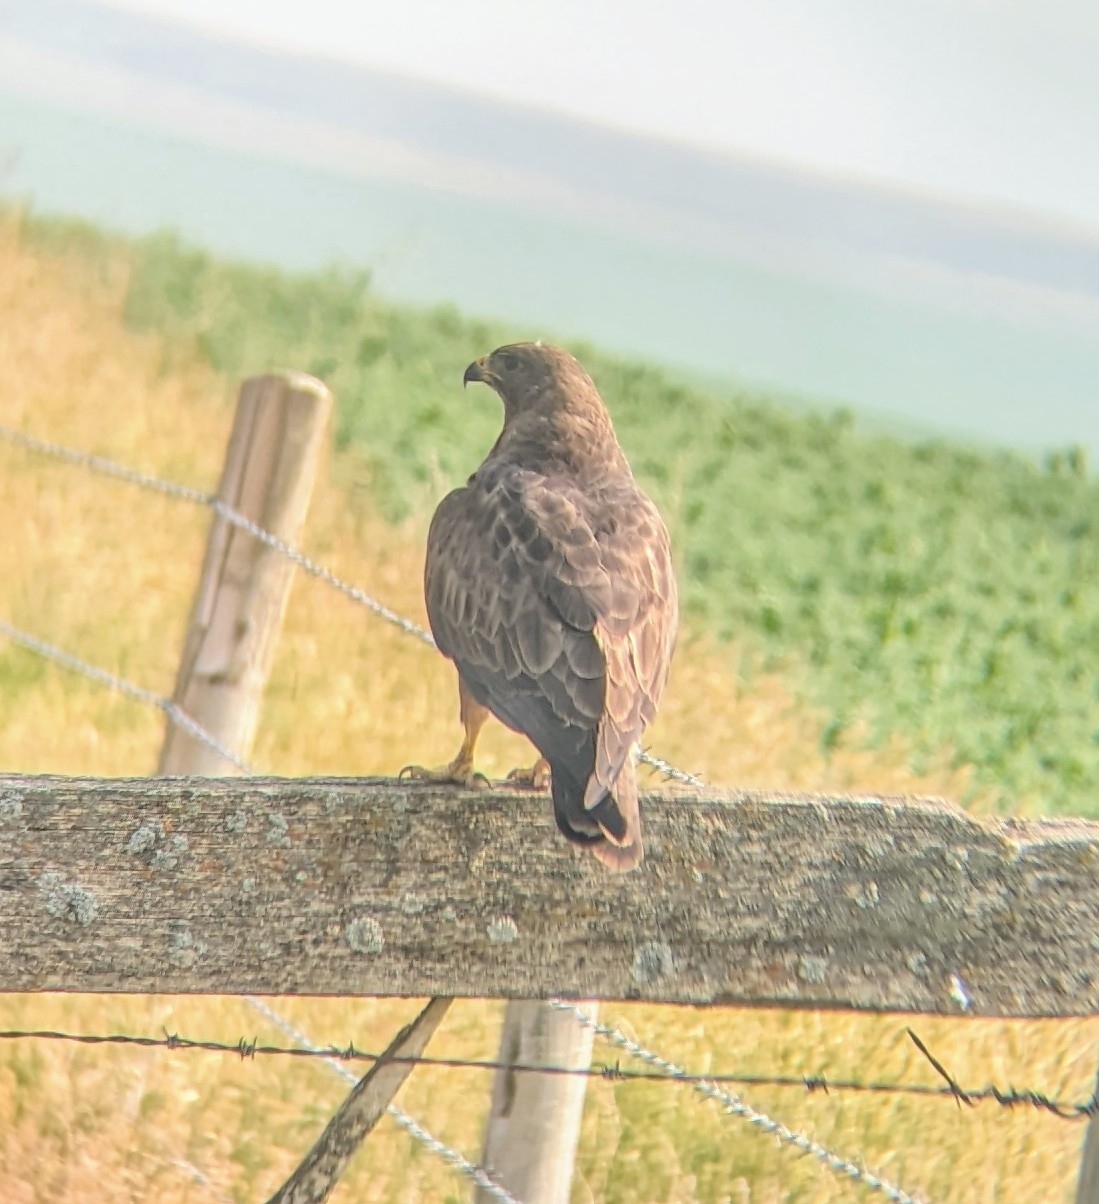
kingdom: Animalia
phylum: Chordata
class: Aves
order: Accipitriformes
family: Accipitridae
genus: Buteo
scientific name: Buteo swainsoni
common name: Swainson's hawk
